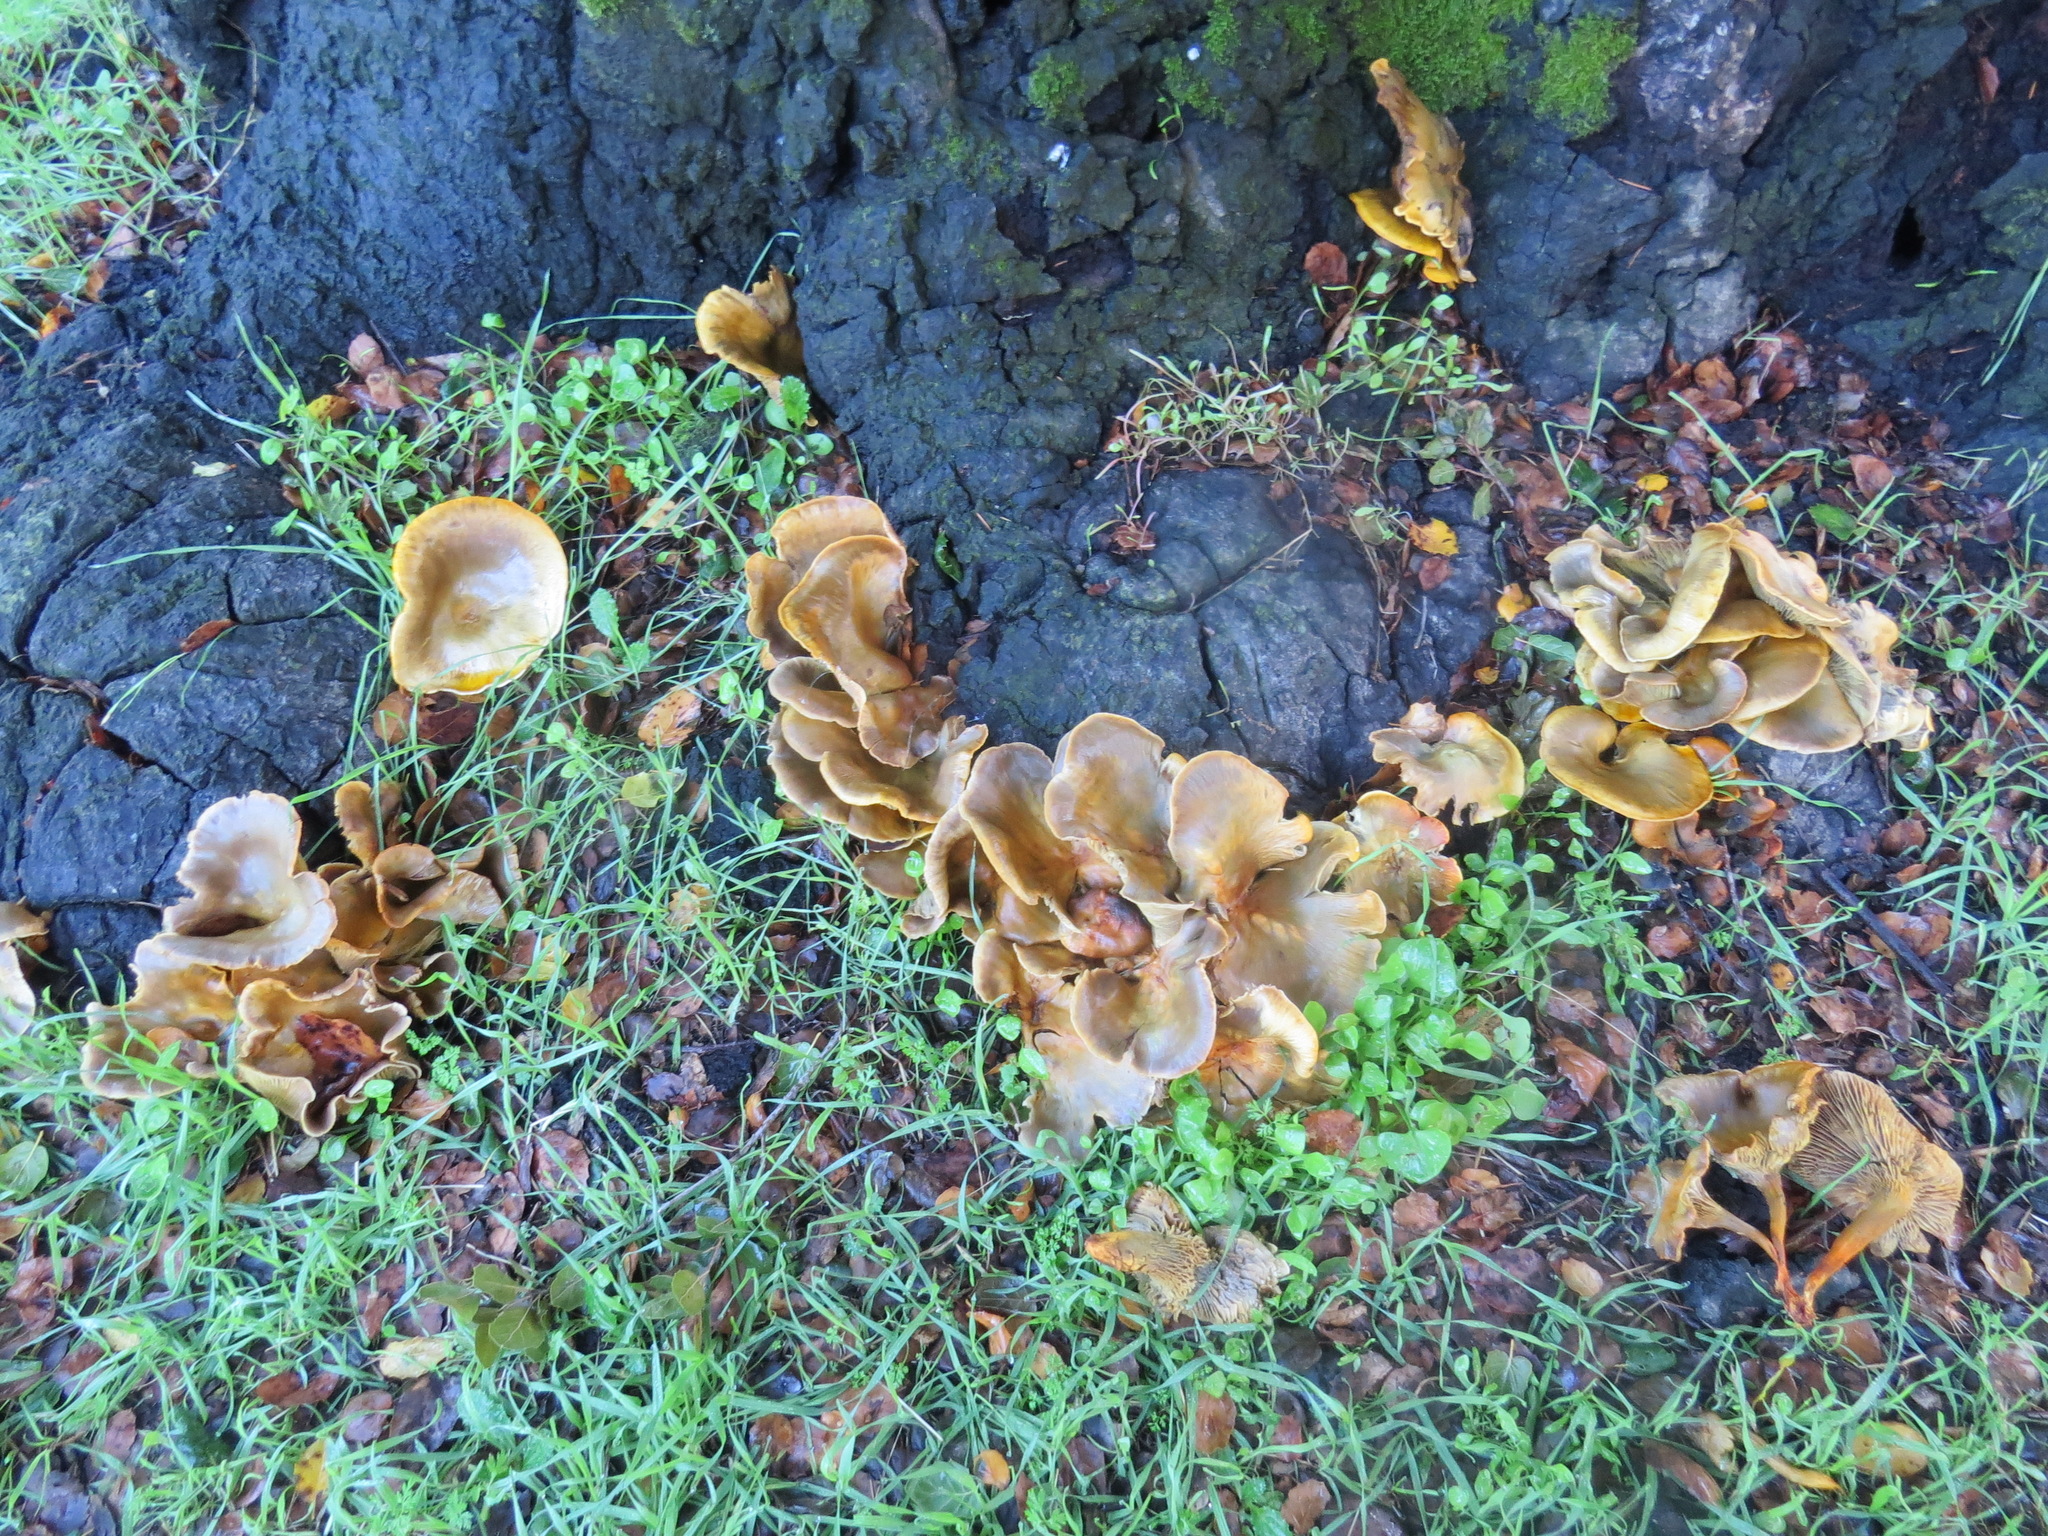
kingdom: Fungi
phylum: Basidiomycota
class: Agaricomycetes
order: Agaricales
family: Omphalotaceae
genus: Omphalotus
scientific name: Omphalotus olivascens
